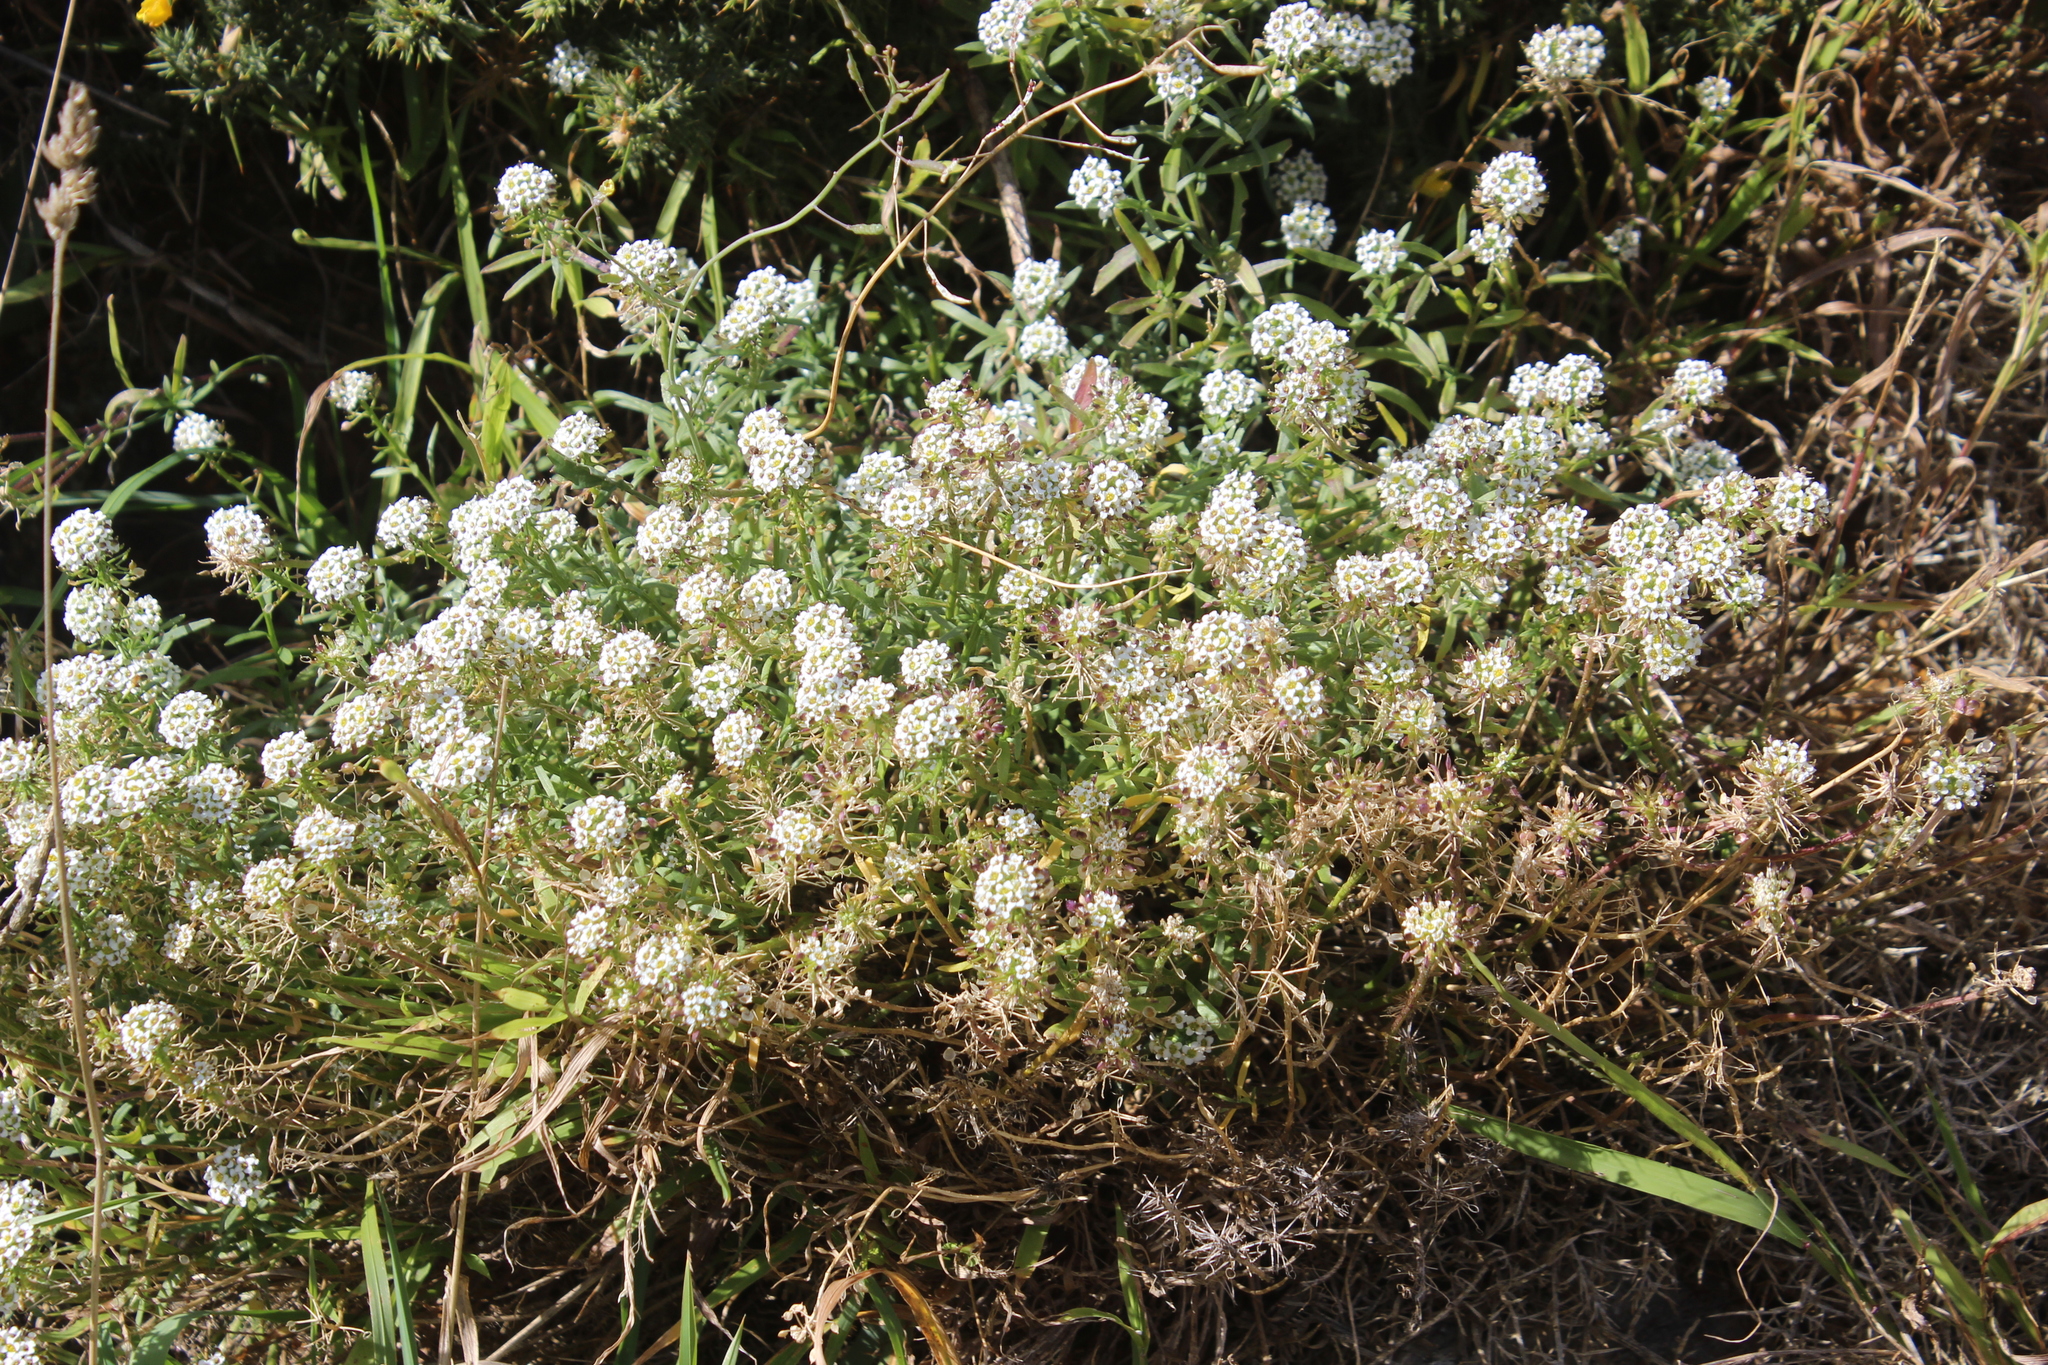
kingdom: Plantae
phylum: Tracheophyta
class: Magnoliopsida
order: Brassicales
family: Brassicaceae
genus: Lobularia
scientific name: Lobularia maritima
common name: Sweet alison
